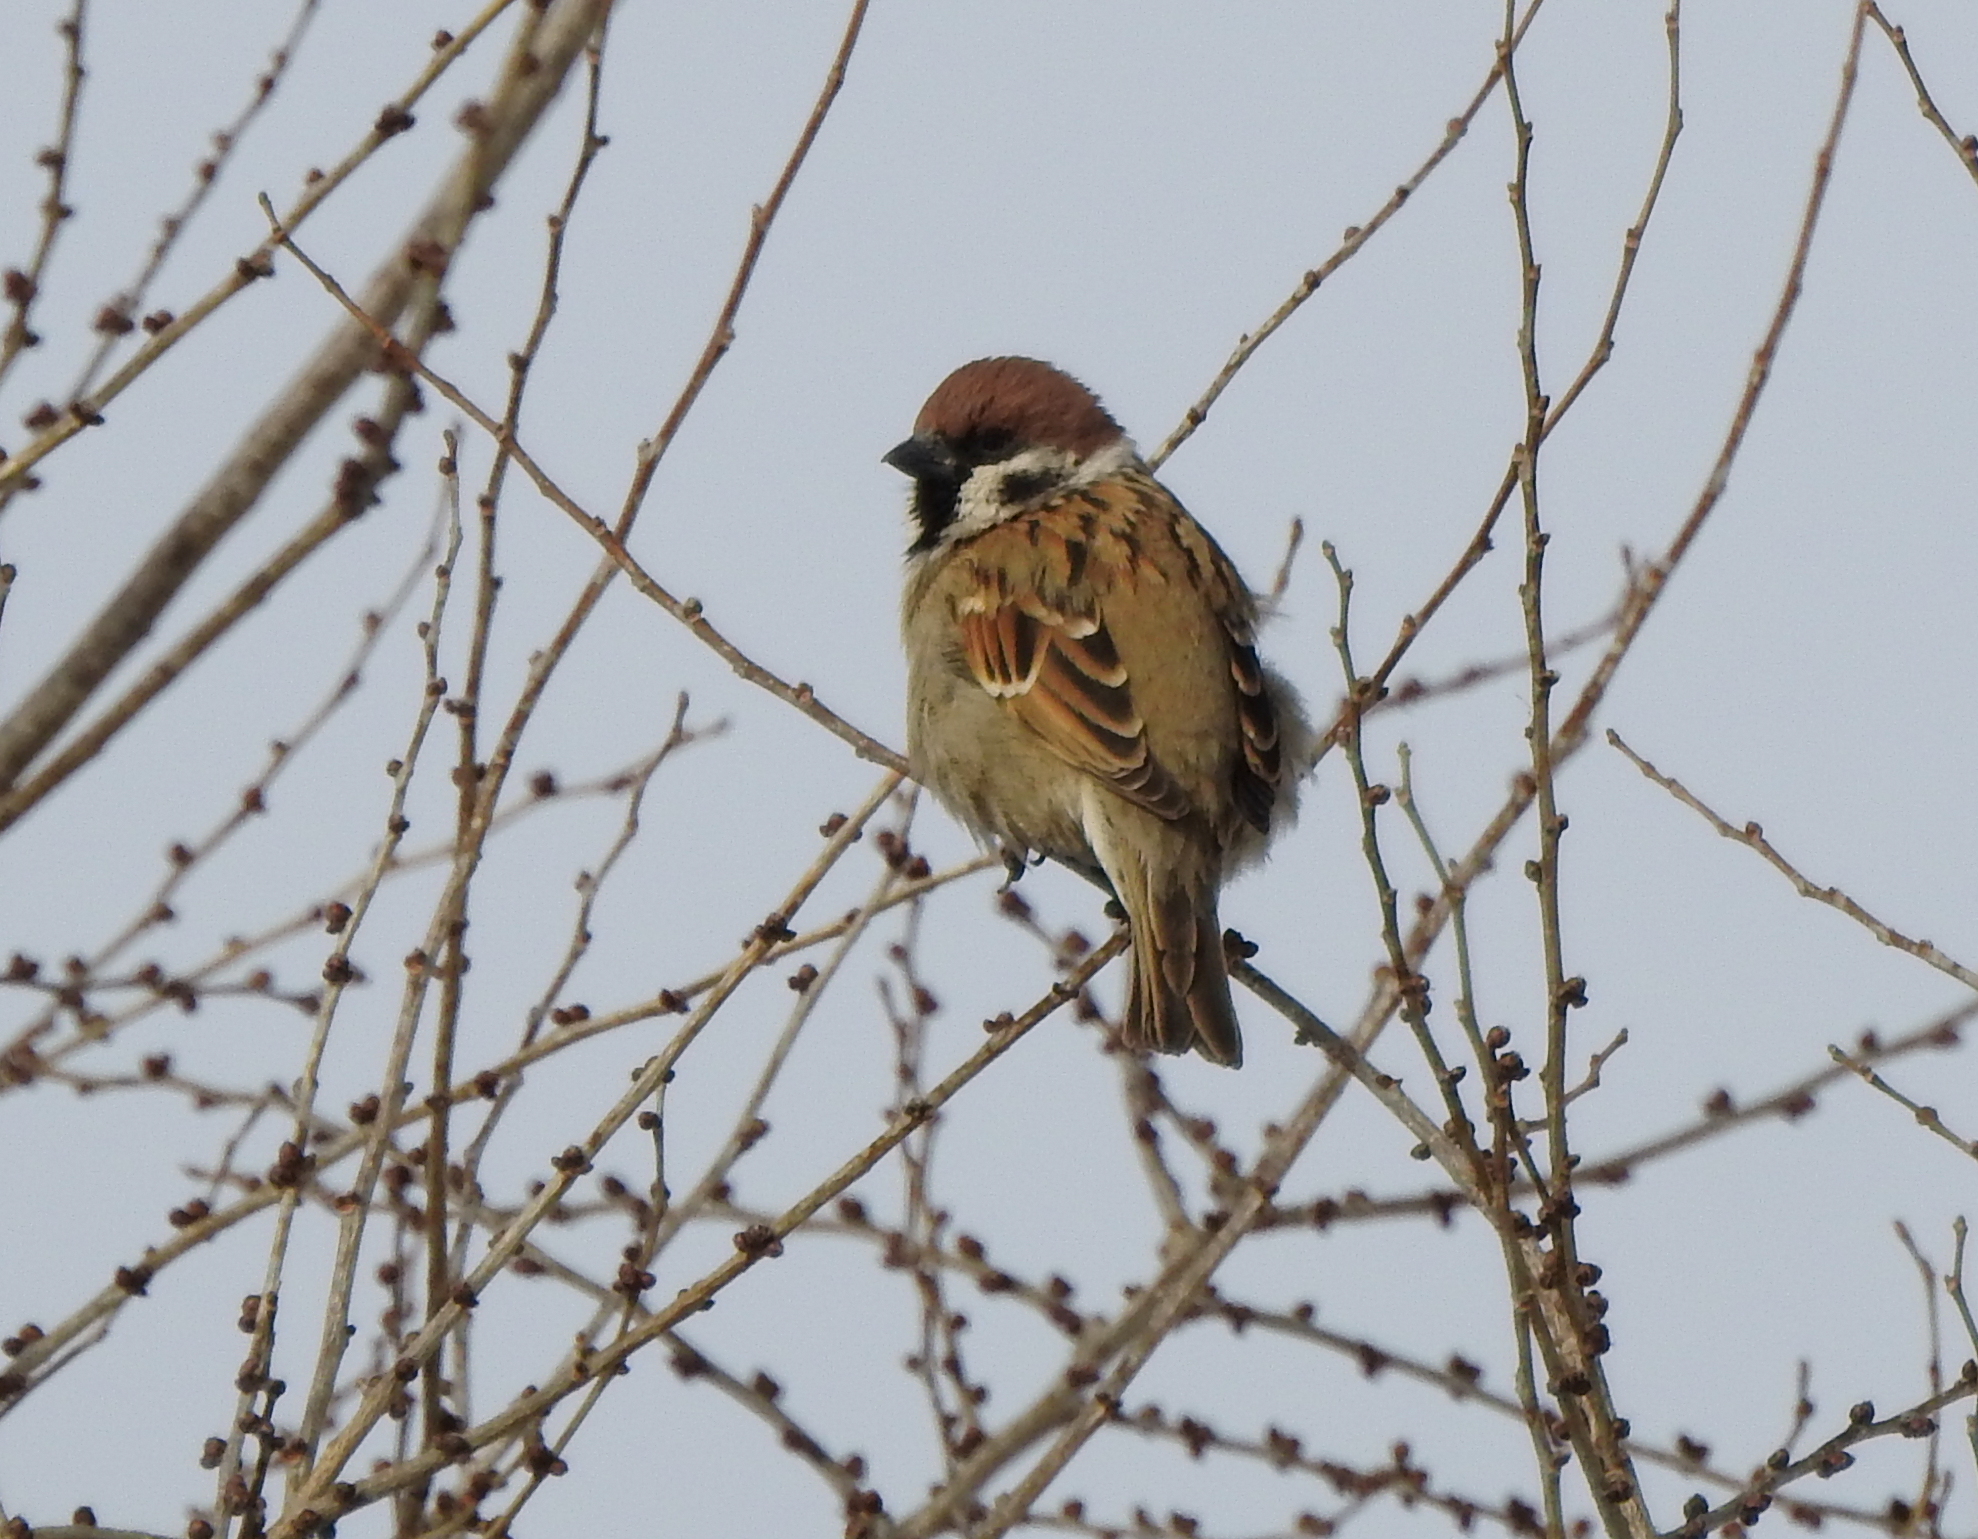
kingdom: Animalia
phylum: Chordata
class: Aves
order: Passeriformes
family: Passeridae
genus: Passer
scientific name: Passer montanus
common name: Eurasian tree sparrow
